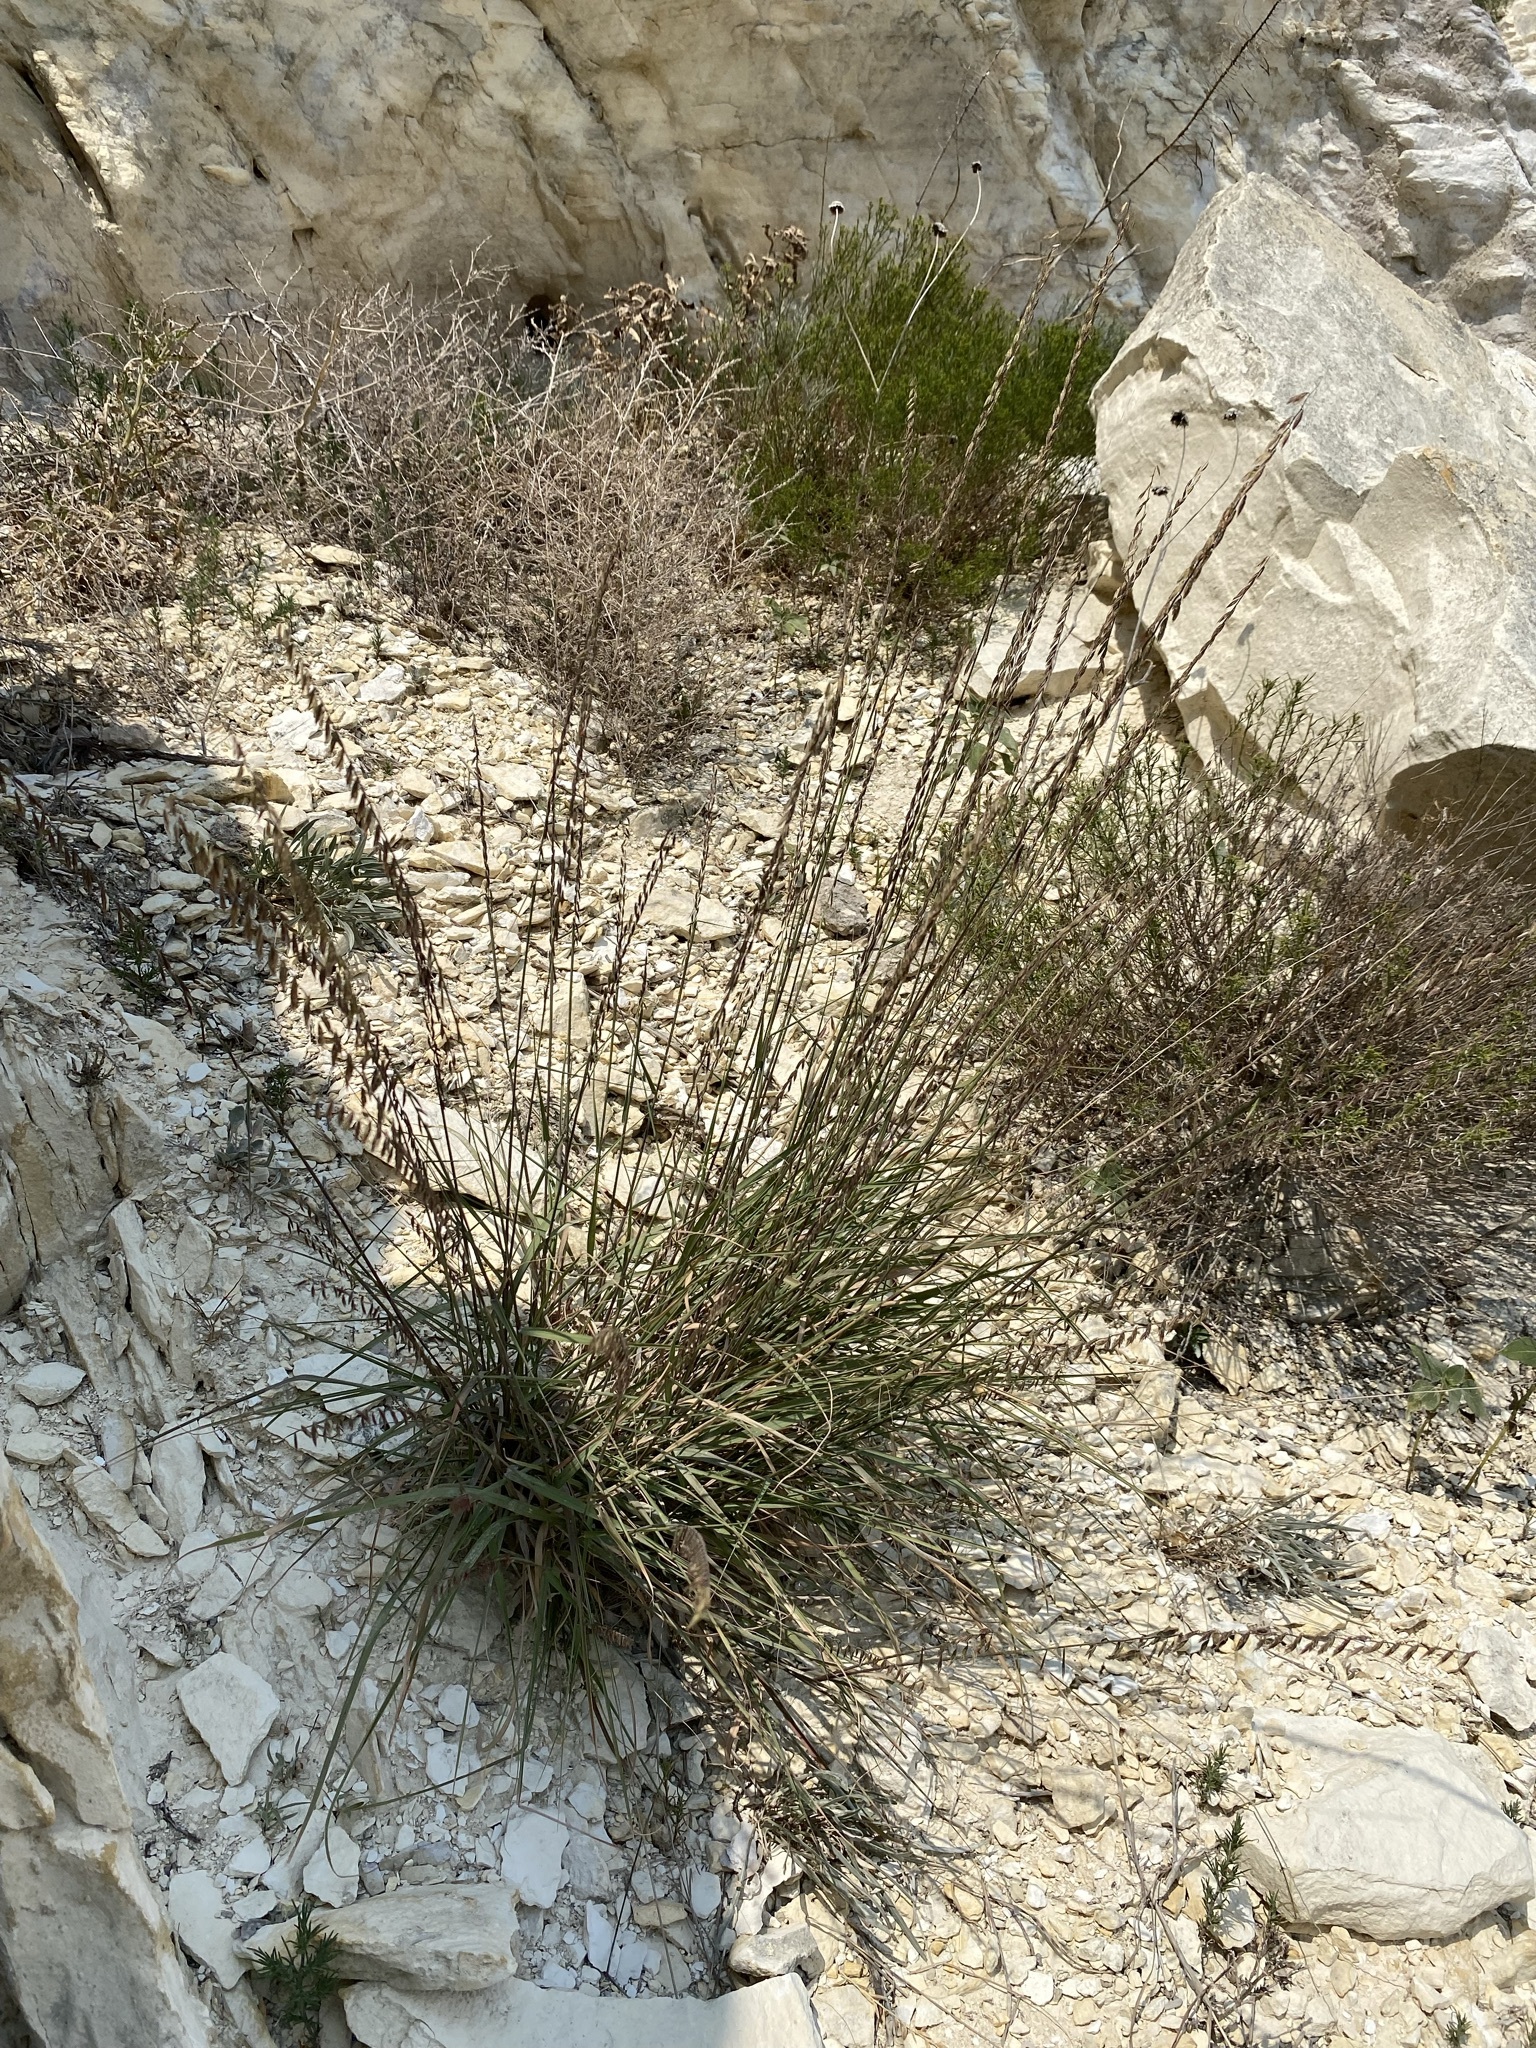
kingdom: Plantae
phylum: Tracheophyta
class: Liliopsida
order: Poales
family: Poaceae
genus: Bouteloua
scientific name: Bouteloua curtipendula
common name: Side-oats grama
